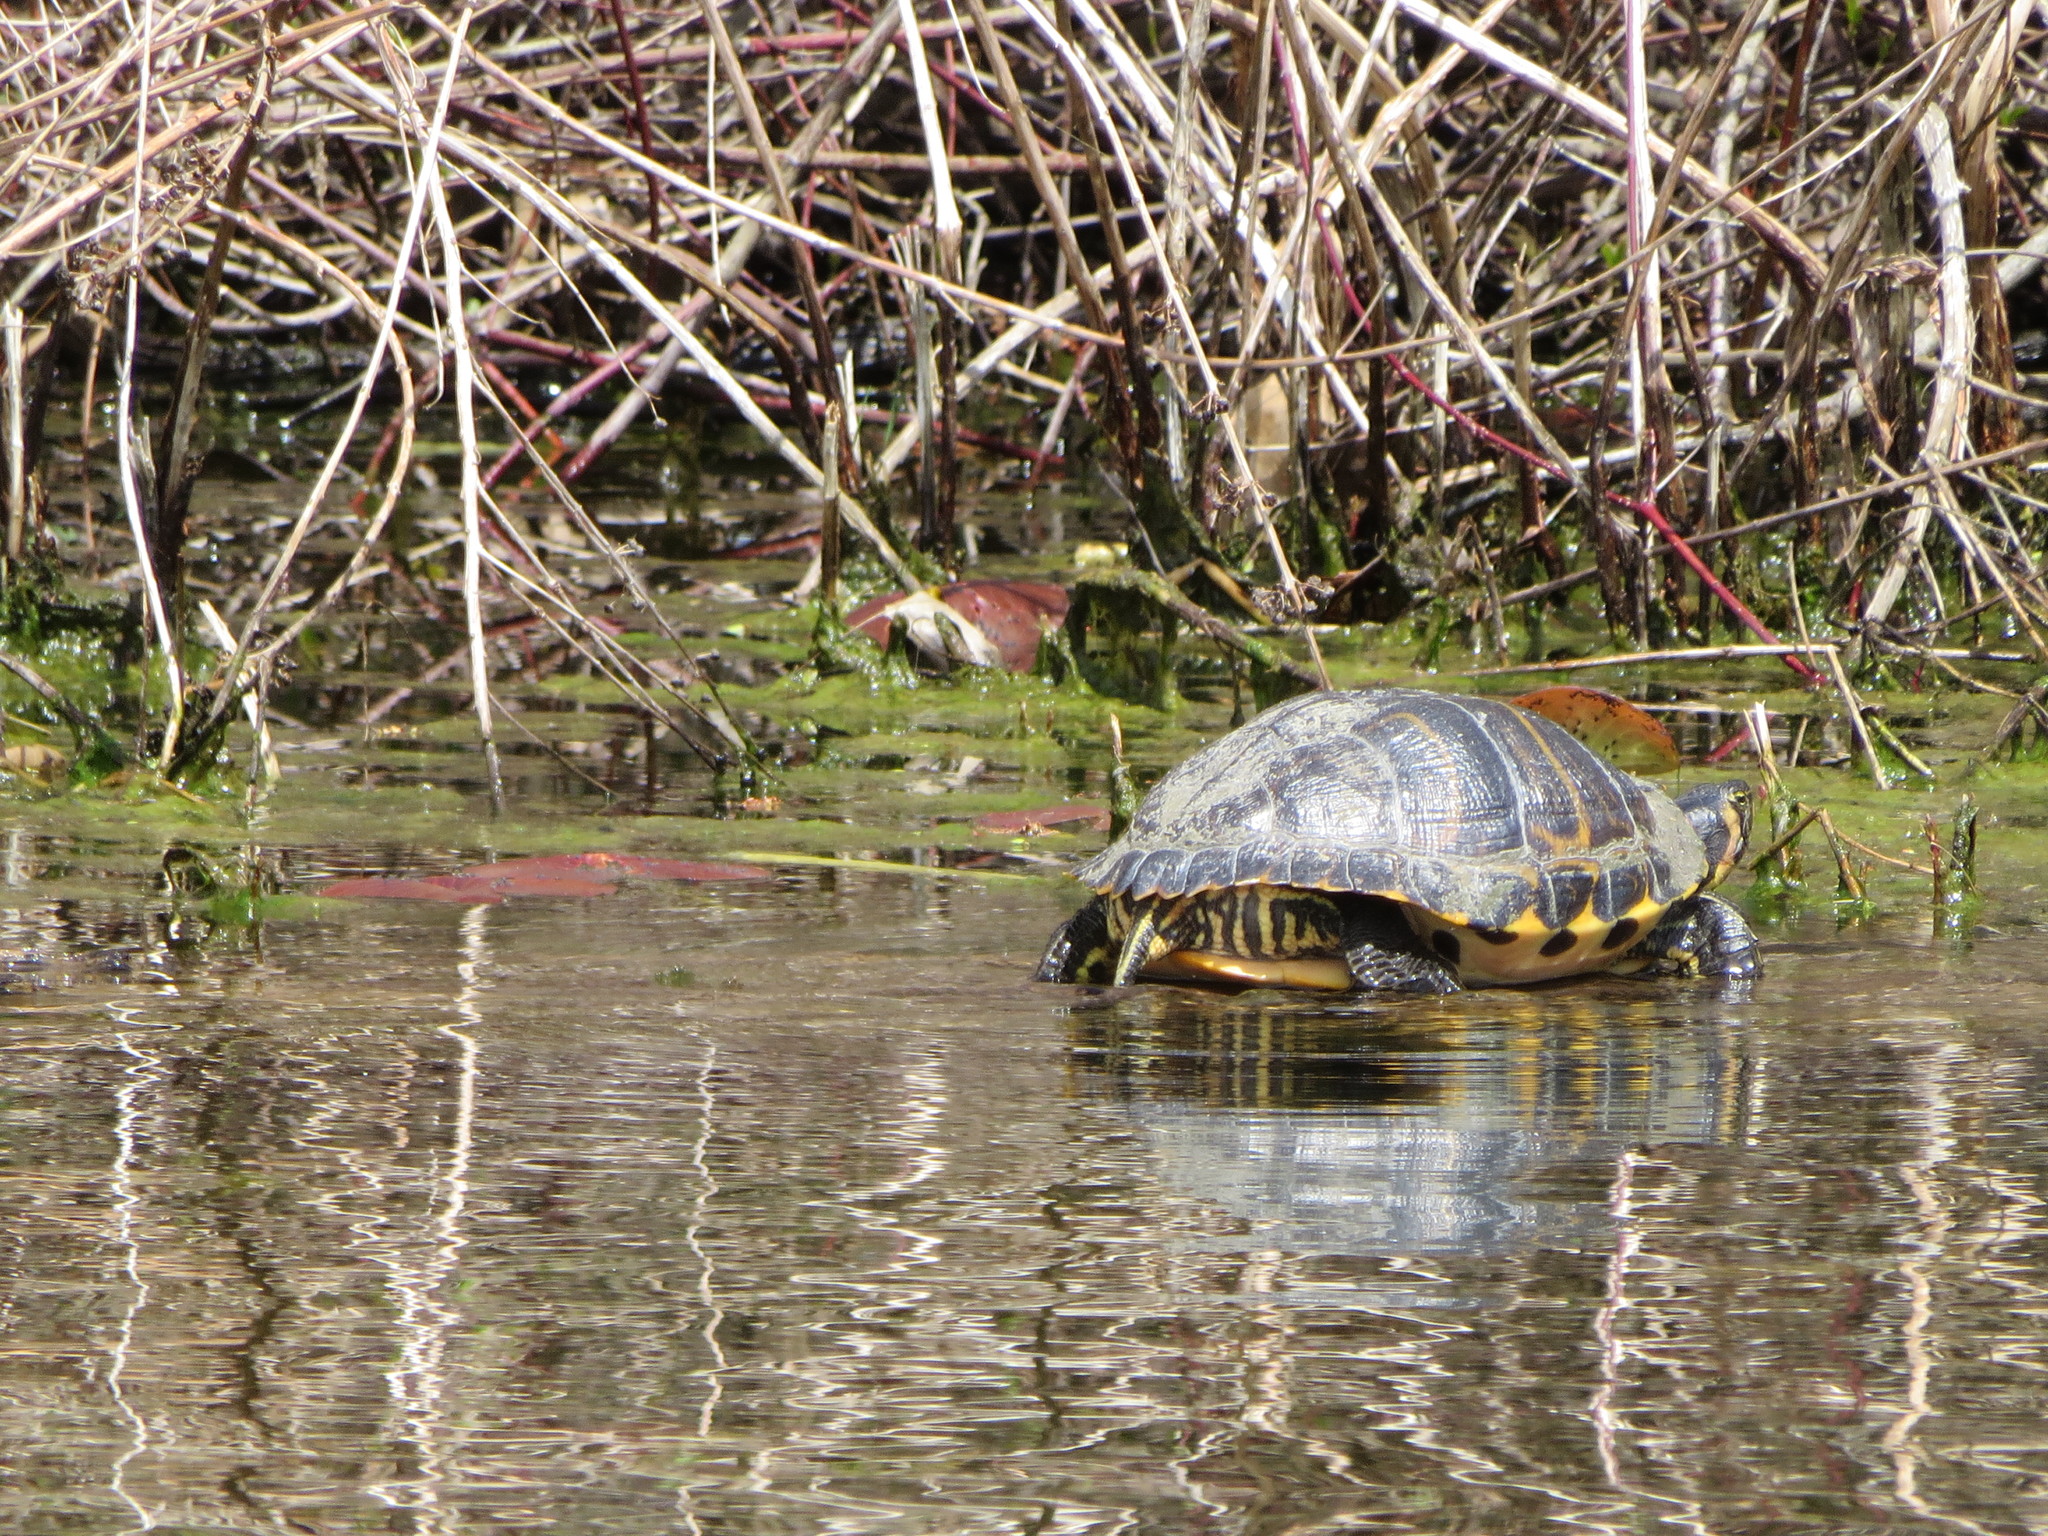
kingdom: Animalia
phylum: Chordata
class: Testudines
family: Emydidae
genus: Trachemys
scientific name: Trachemys scripta
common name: Slider
